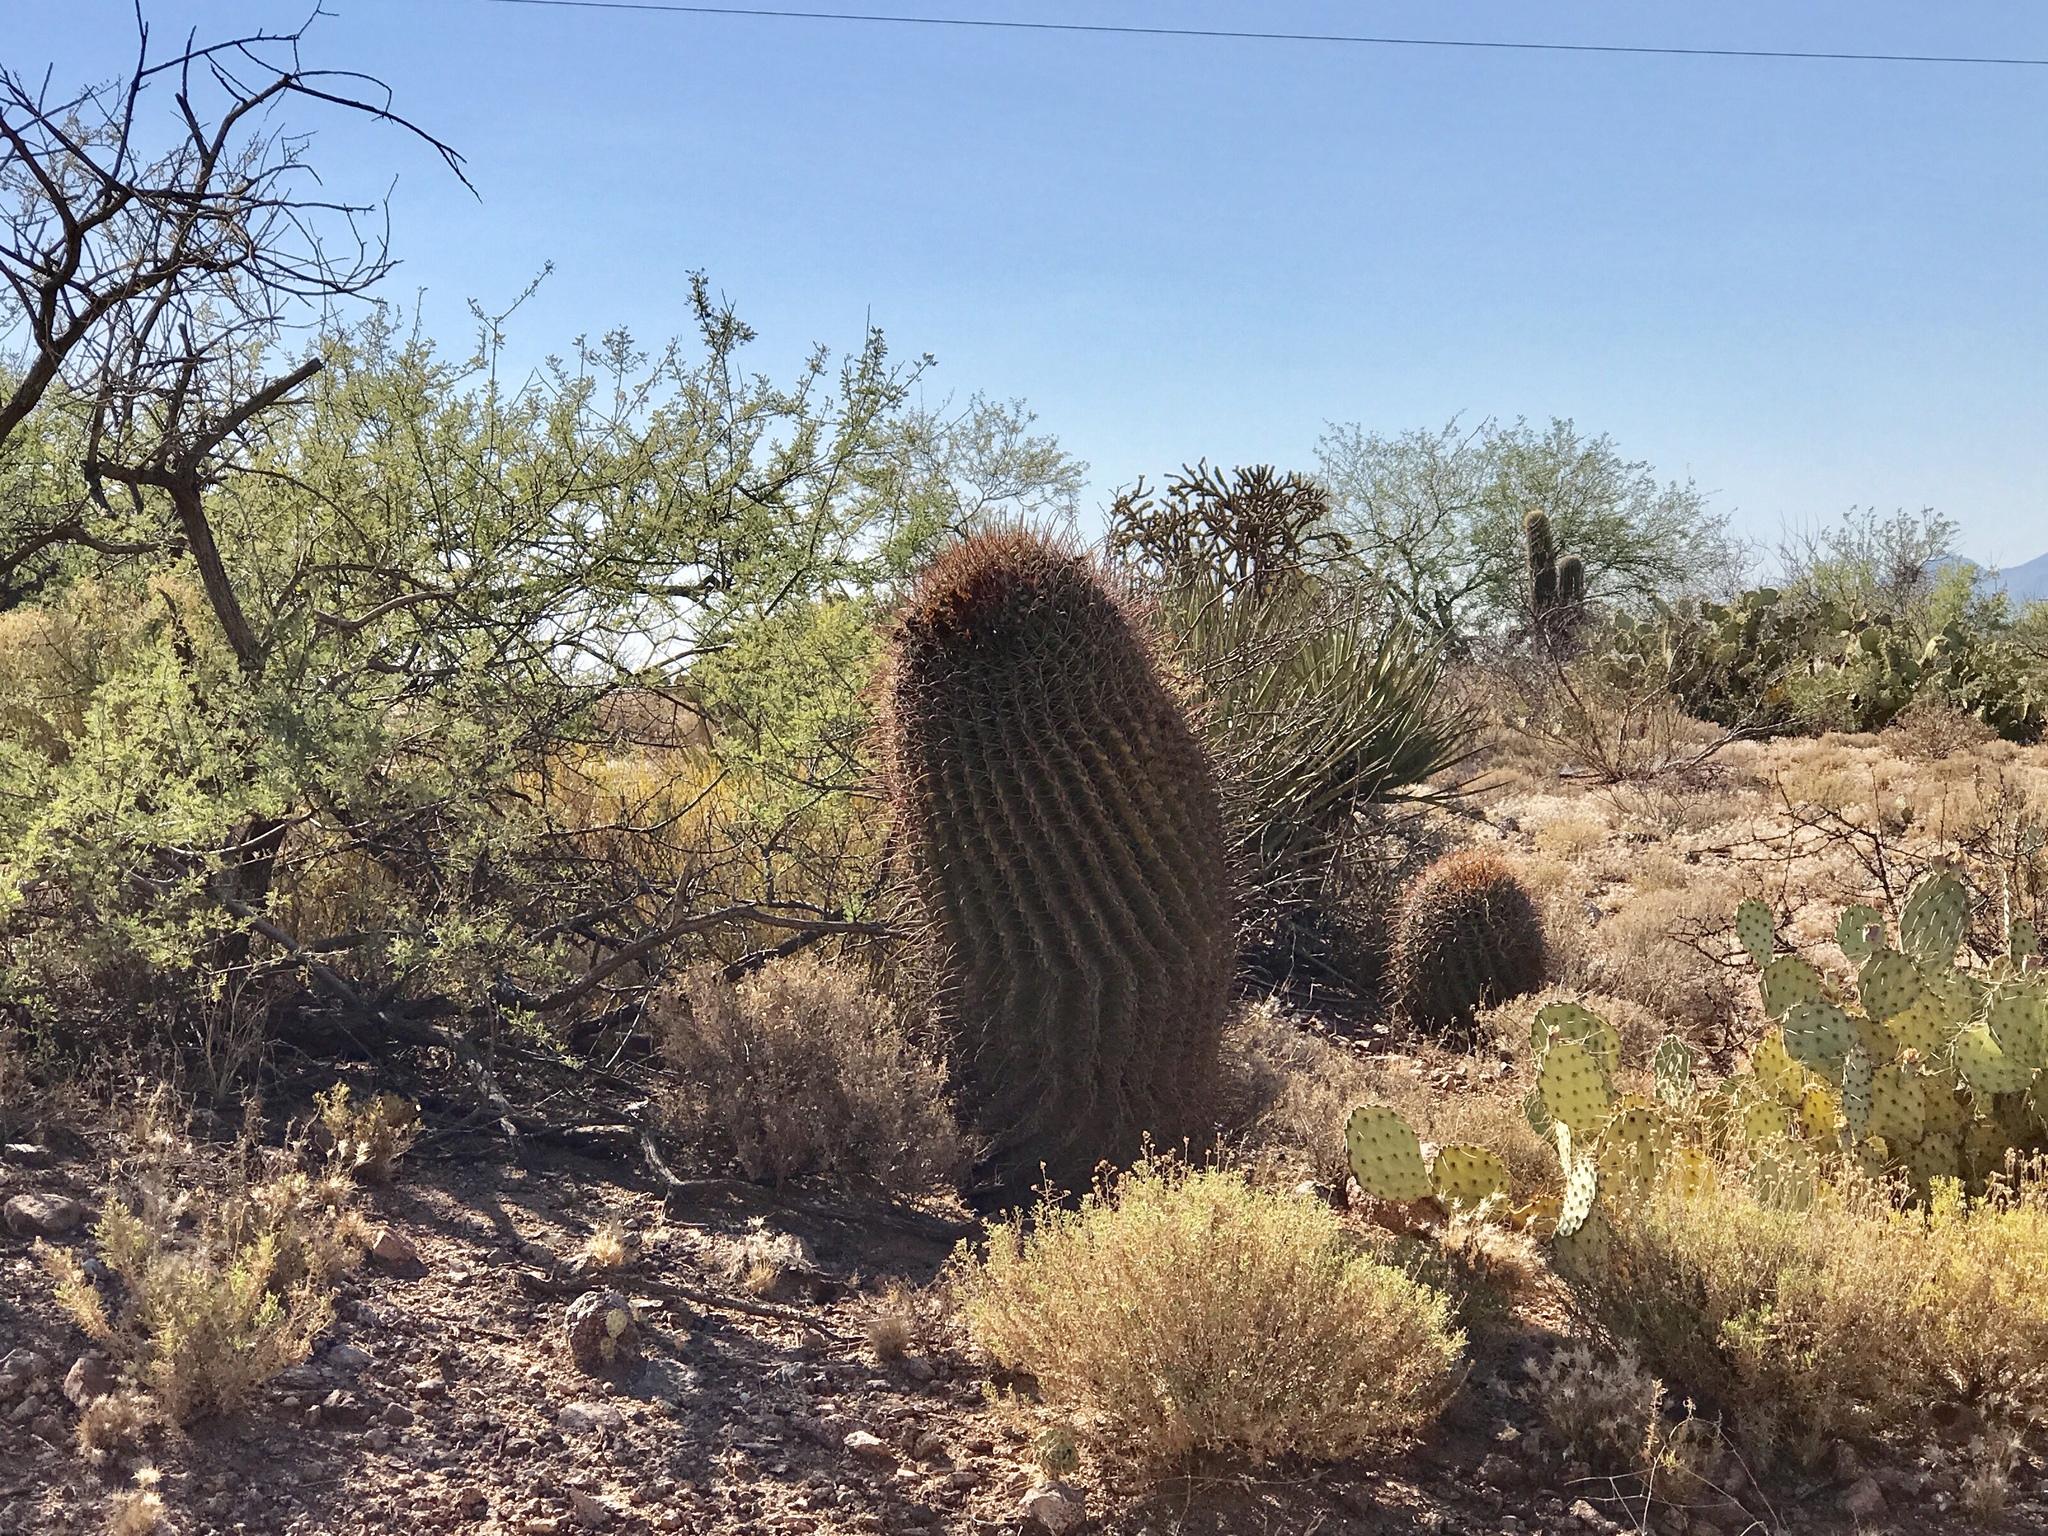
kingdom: Plantae
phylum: Tracheophyta
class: Magnoliopsida
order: Caryophyllales
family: Cactaceae
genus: Ferocactus
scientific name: Ferocactus wislizeni
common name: Candy barrel cactus
